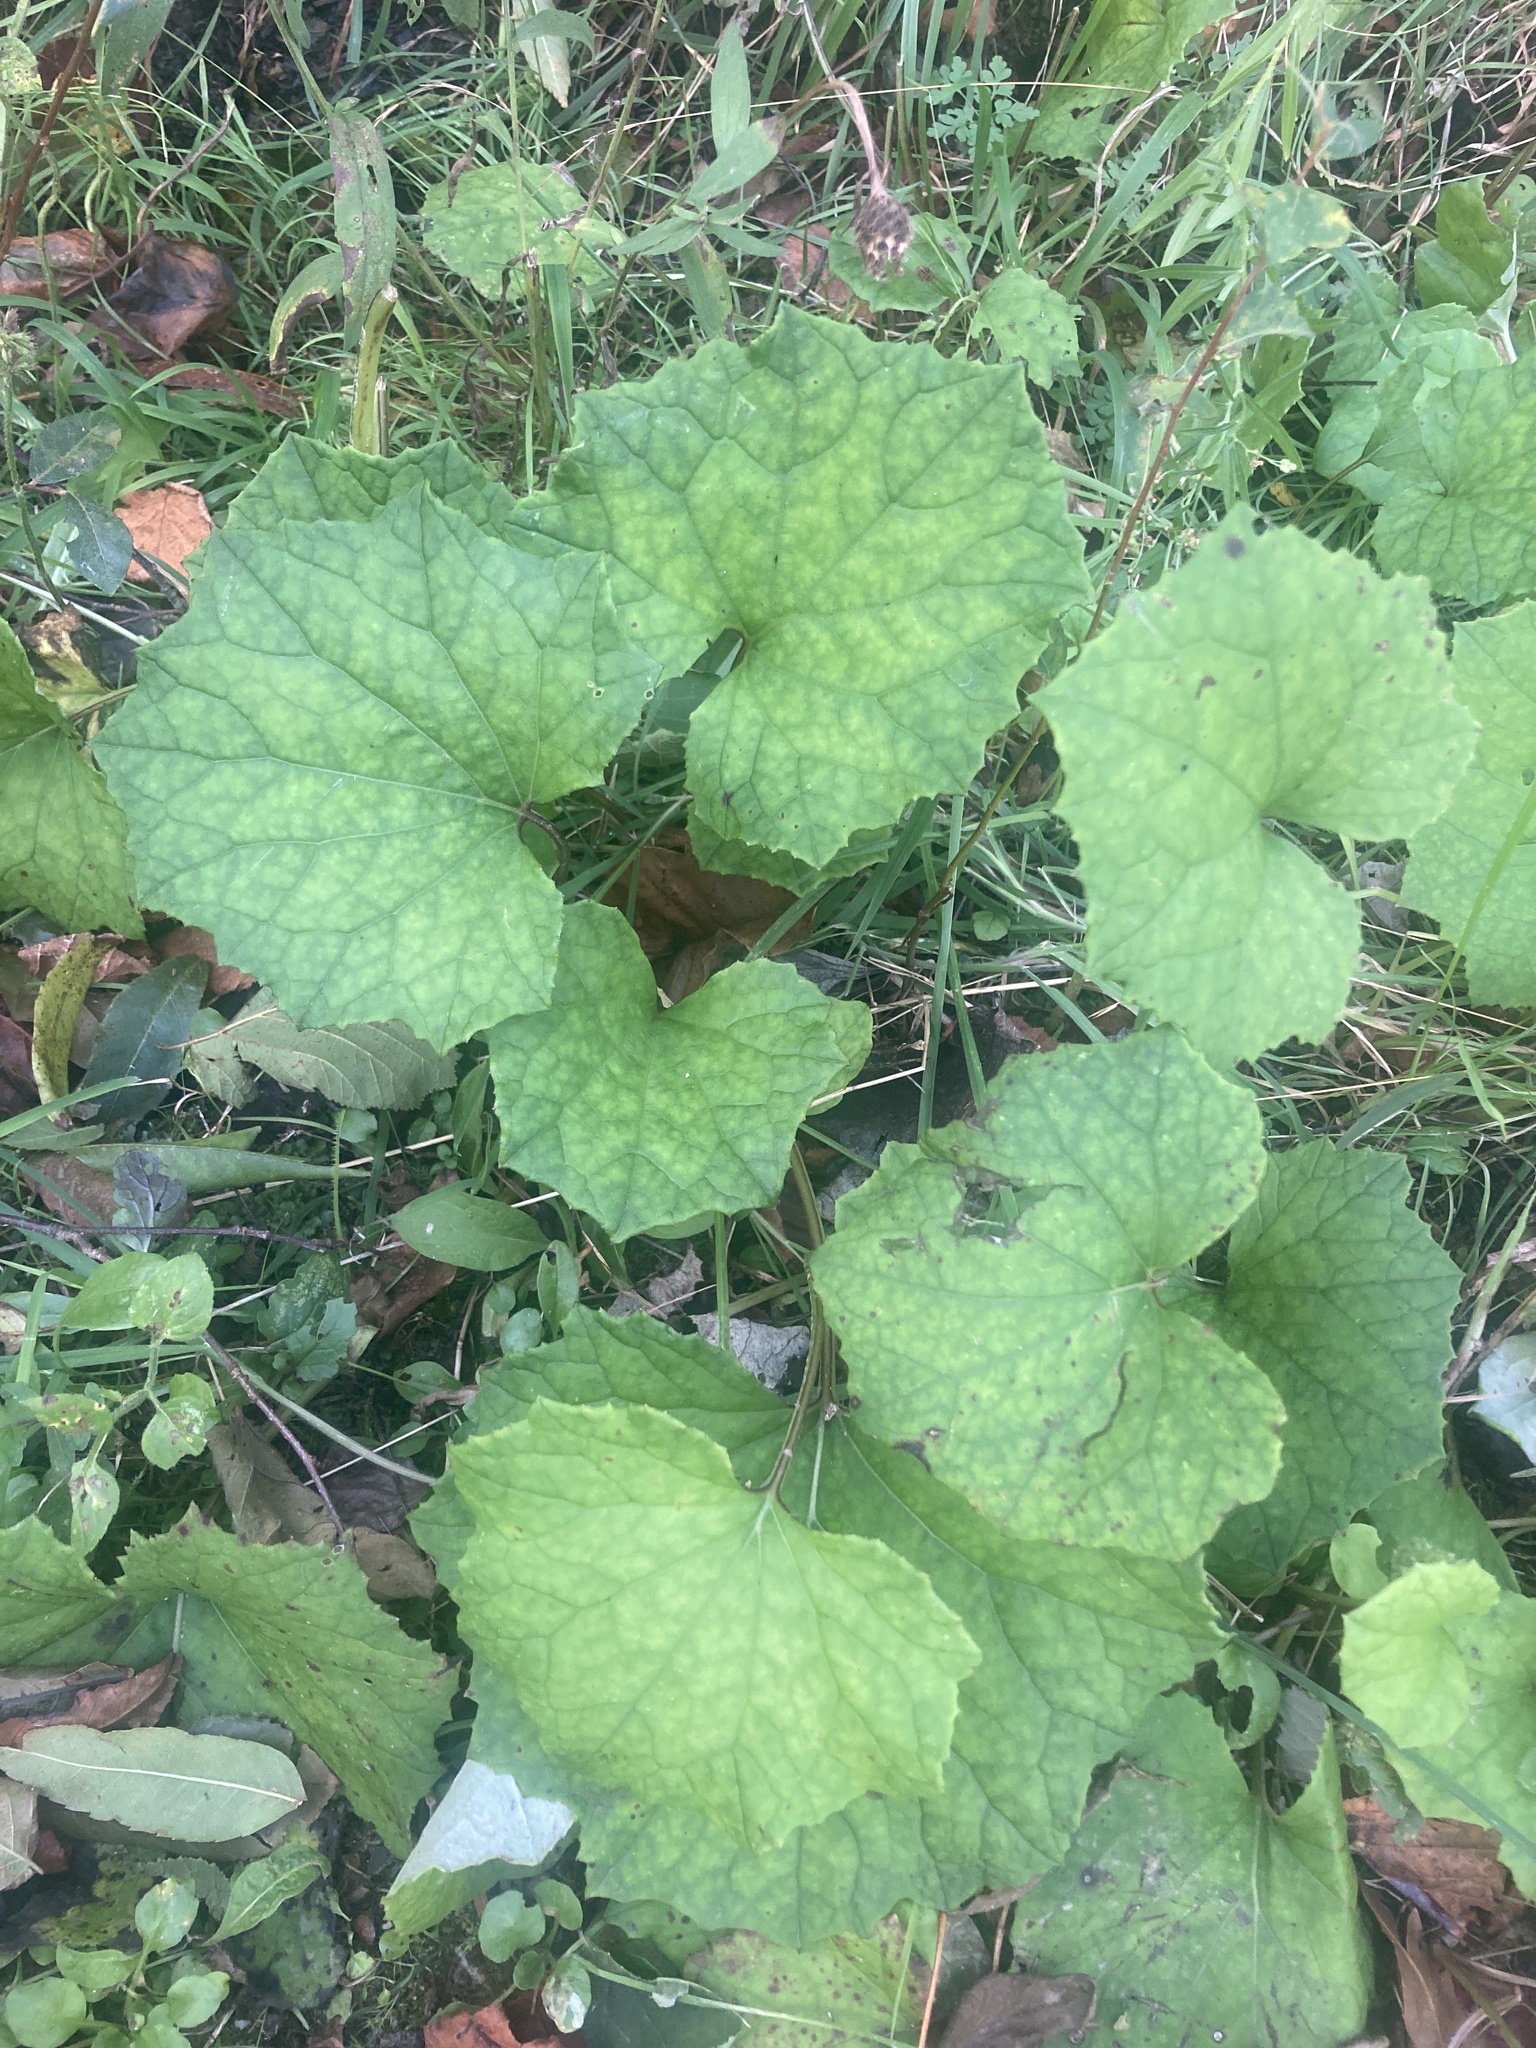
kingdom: Plantae
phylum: Tracheophyta
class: Magnoliopsida
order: Asterales
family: Asteraceae
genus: Tussilago
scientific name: Tussilago farfara
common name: Coltsfoot
